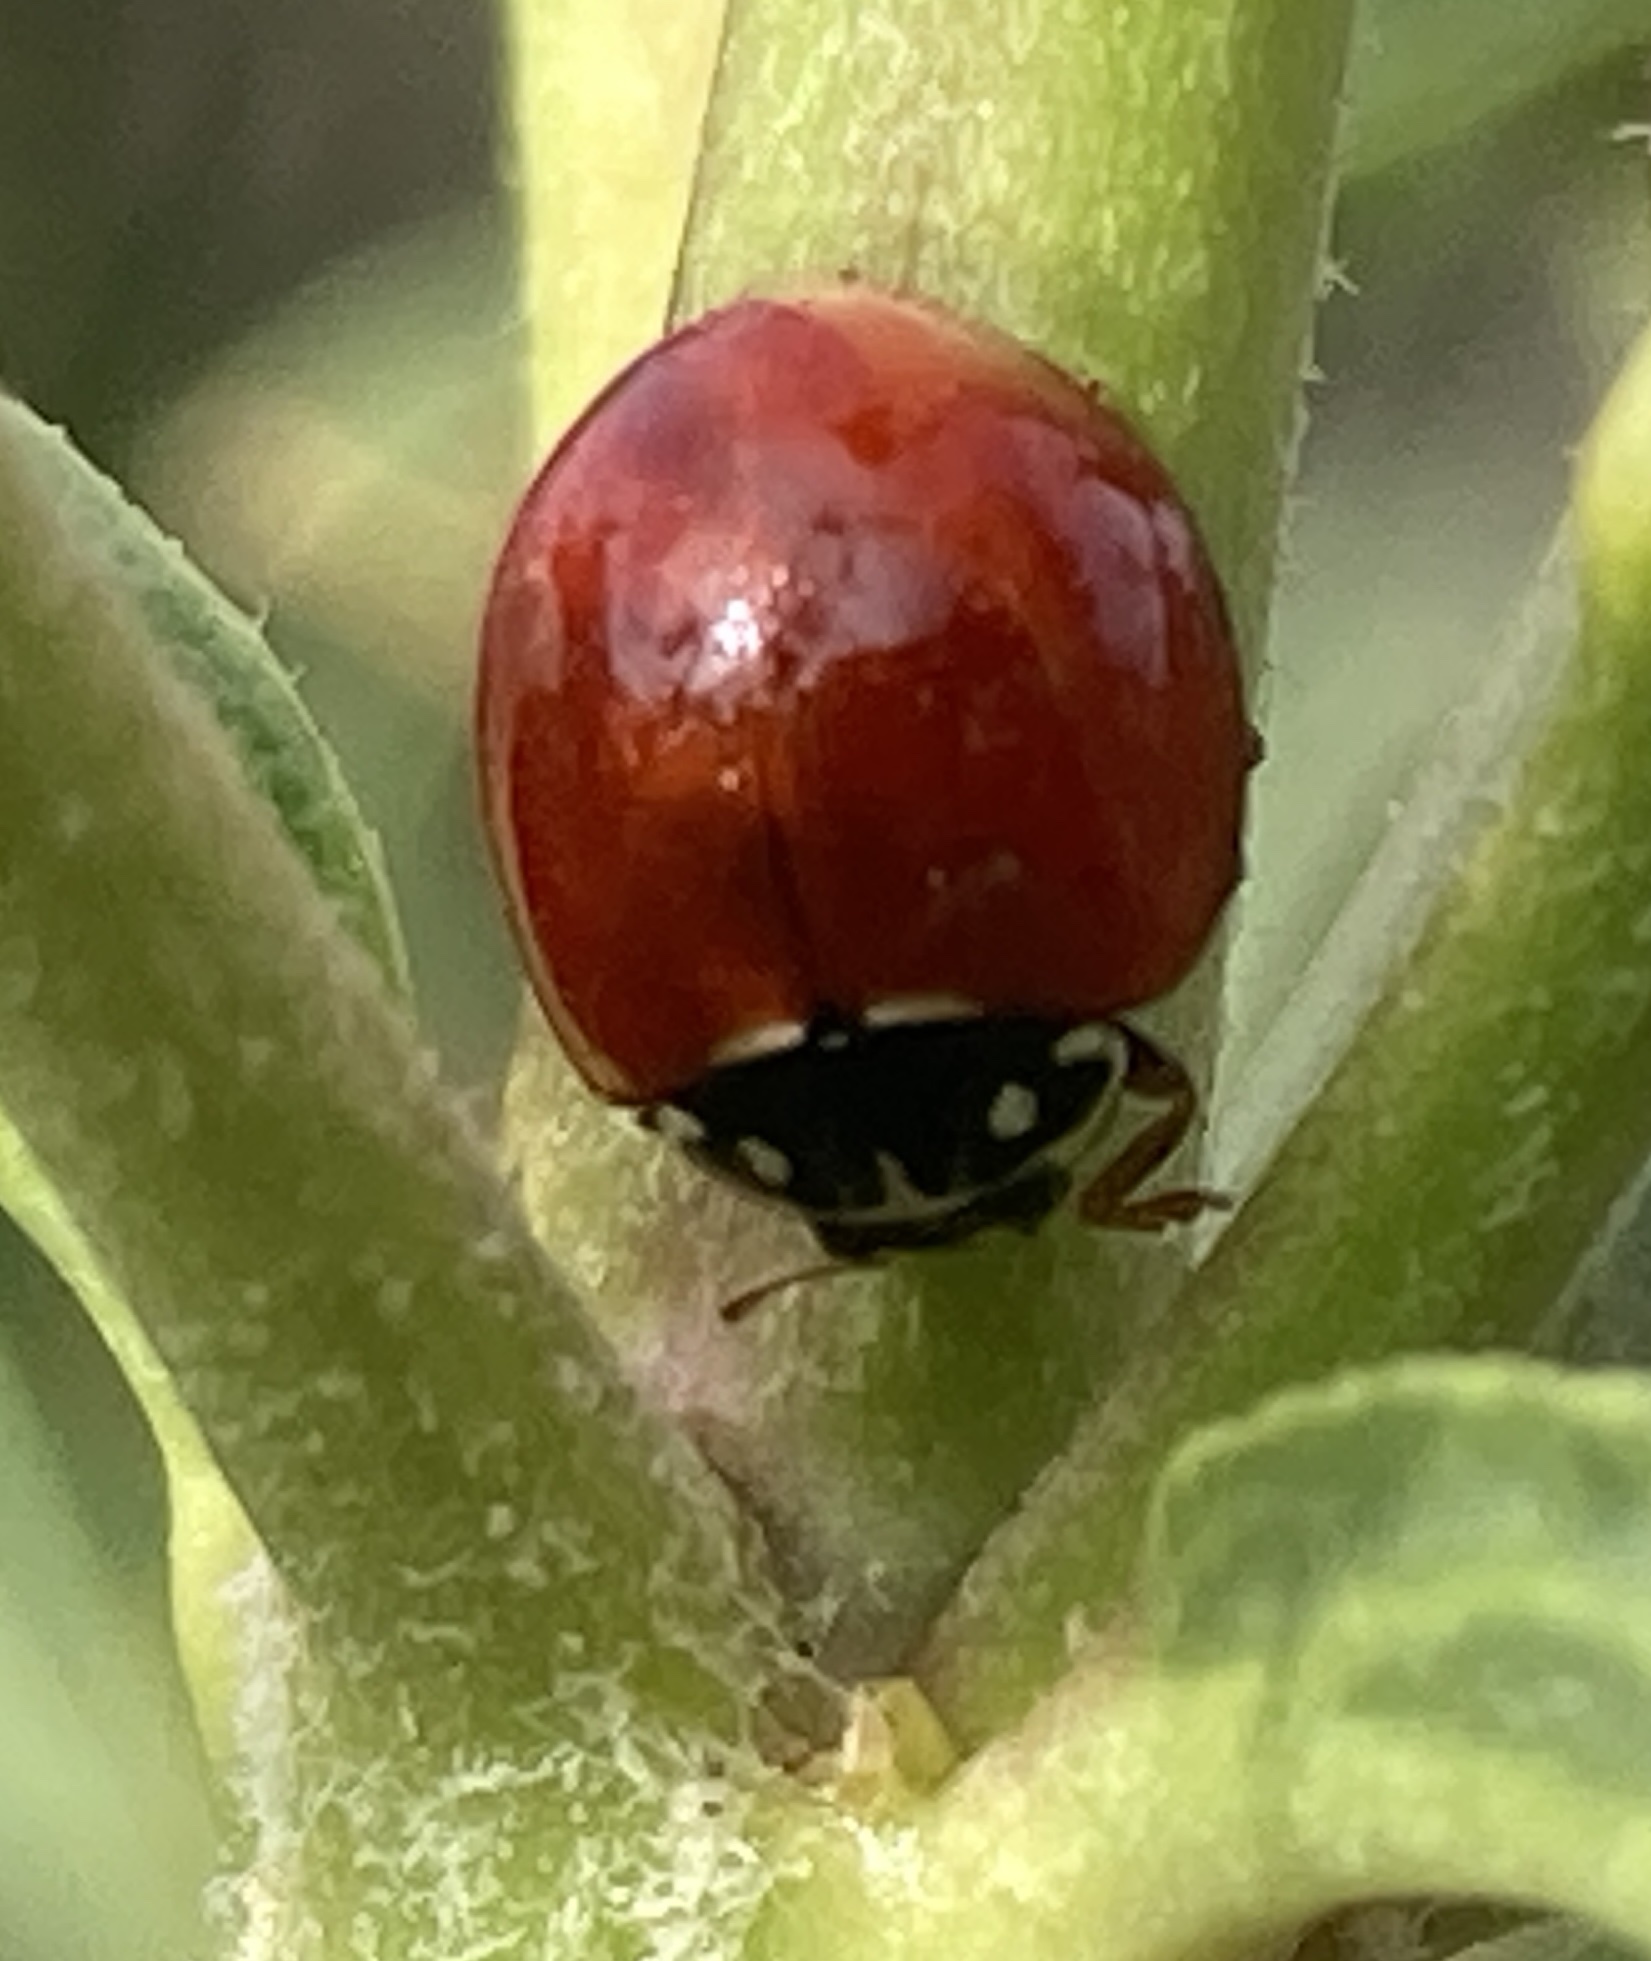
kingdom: Animalia
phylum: Arthropoda
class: Insecta
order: Coleoptera
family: Coccinellidae
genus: Cycloneda
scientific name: Cycloneda sanguinea
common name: Ladybird beetle
